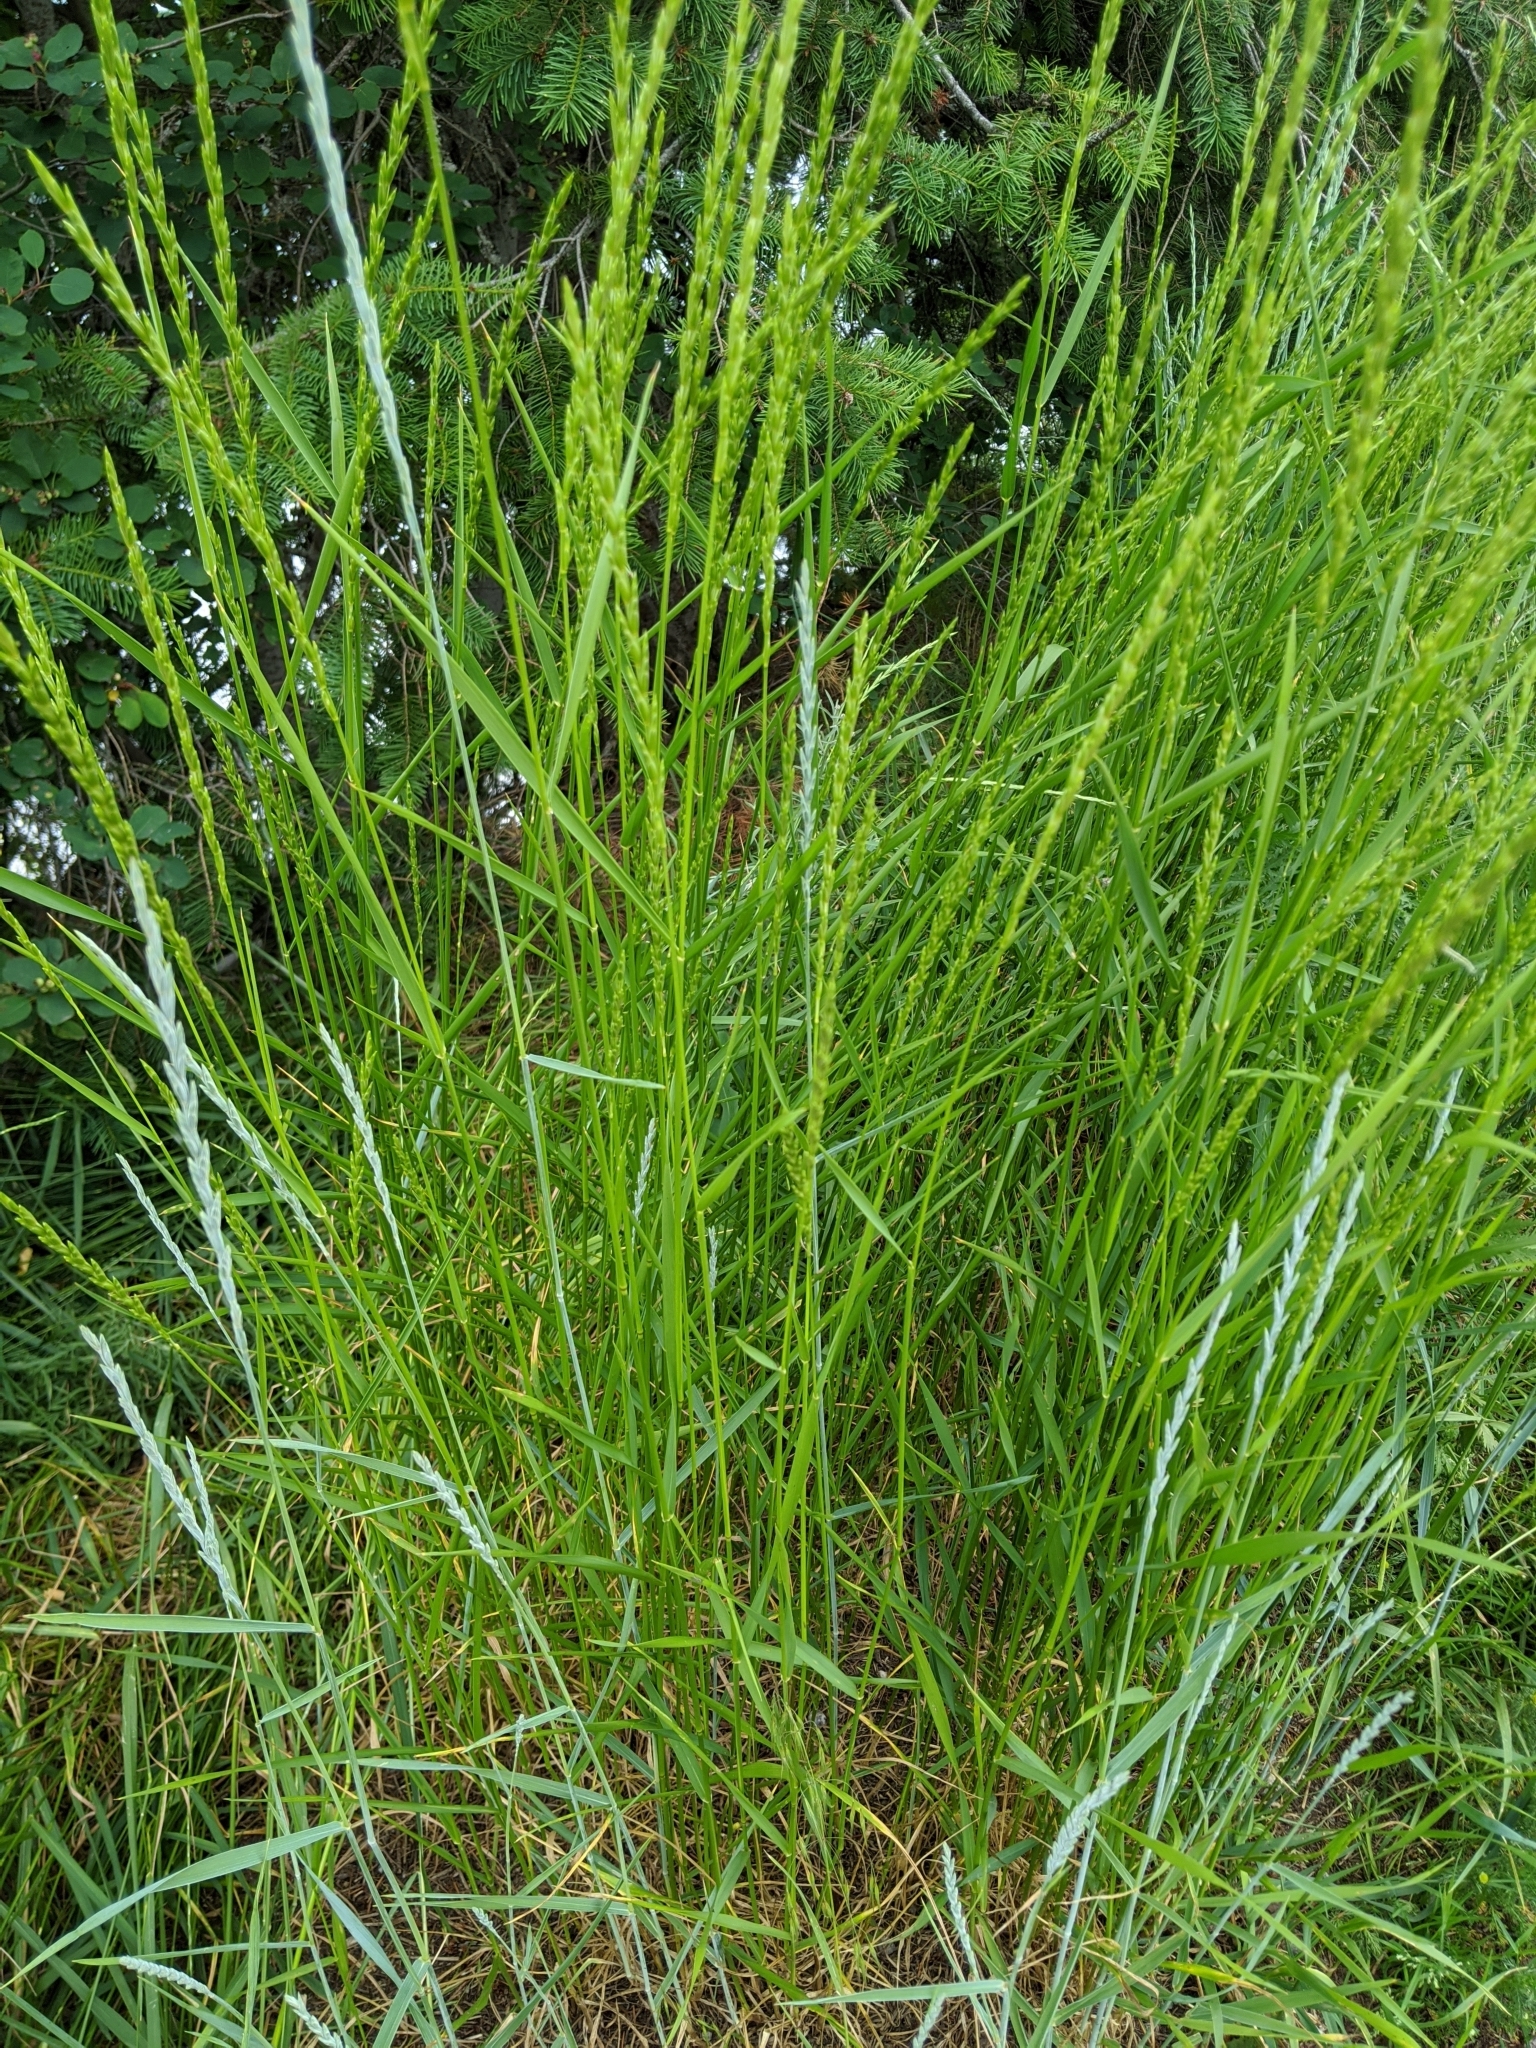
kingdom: Plantae
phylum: Tracheophyta
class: Liliopsida
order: Poales
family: Poaceae
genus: Thinopyrum
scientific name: Thinopyrum intermedium
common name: Intermediate wheatgrass
